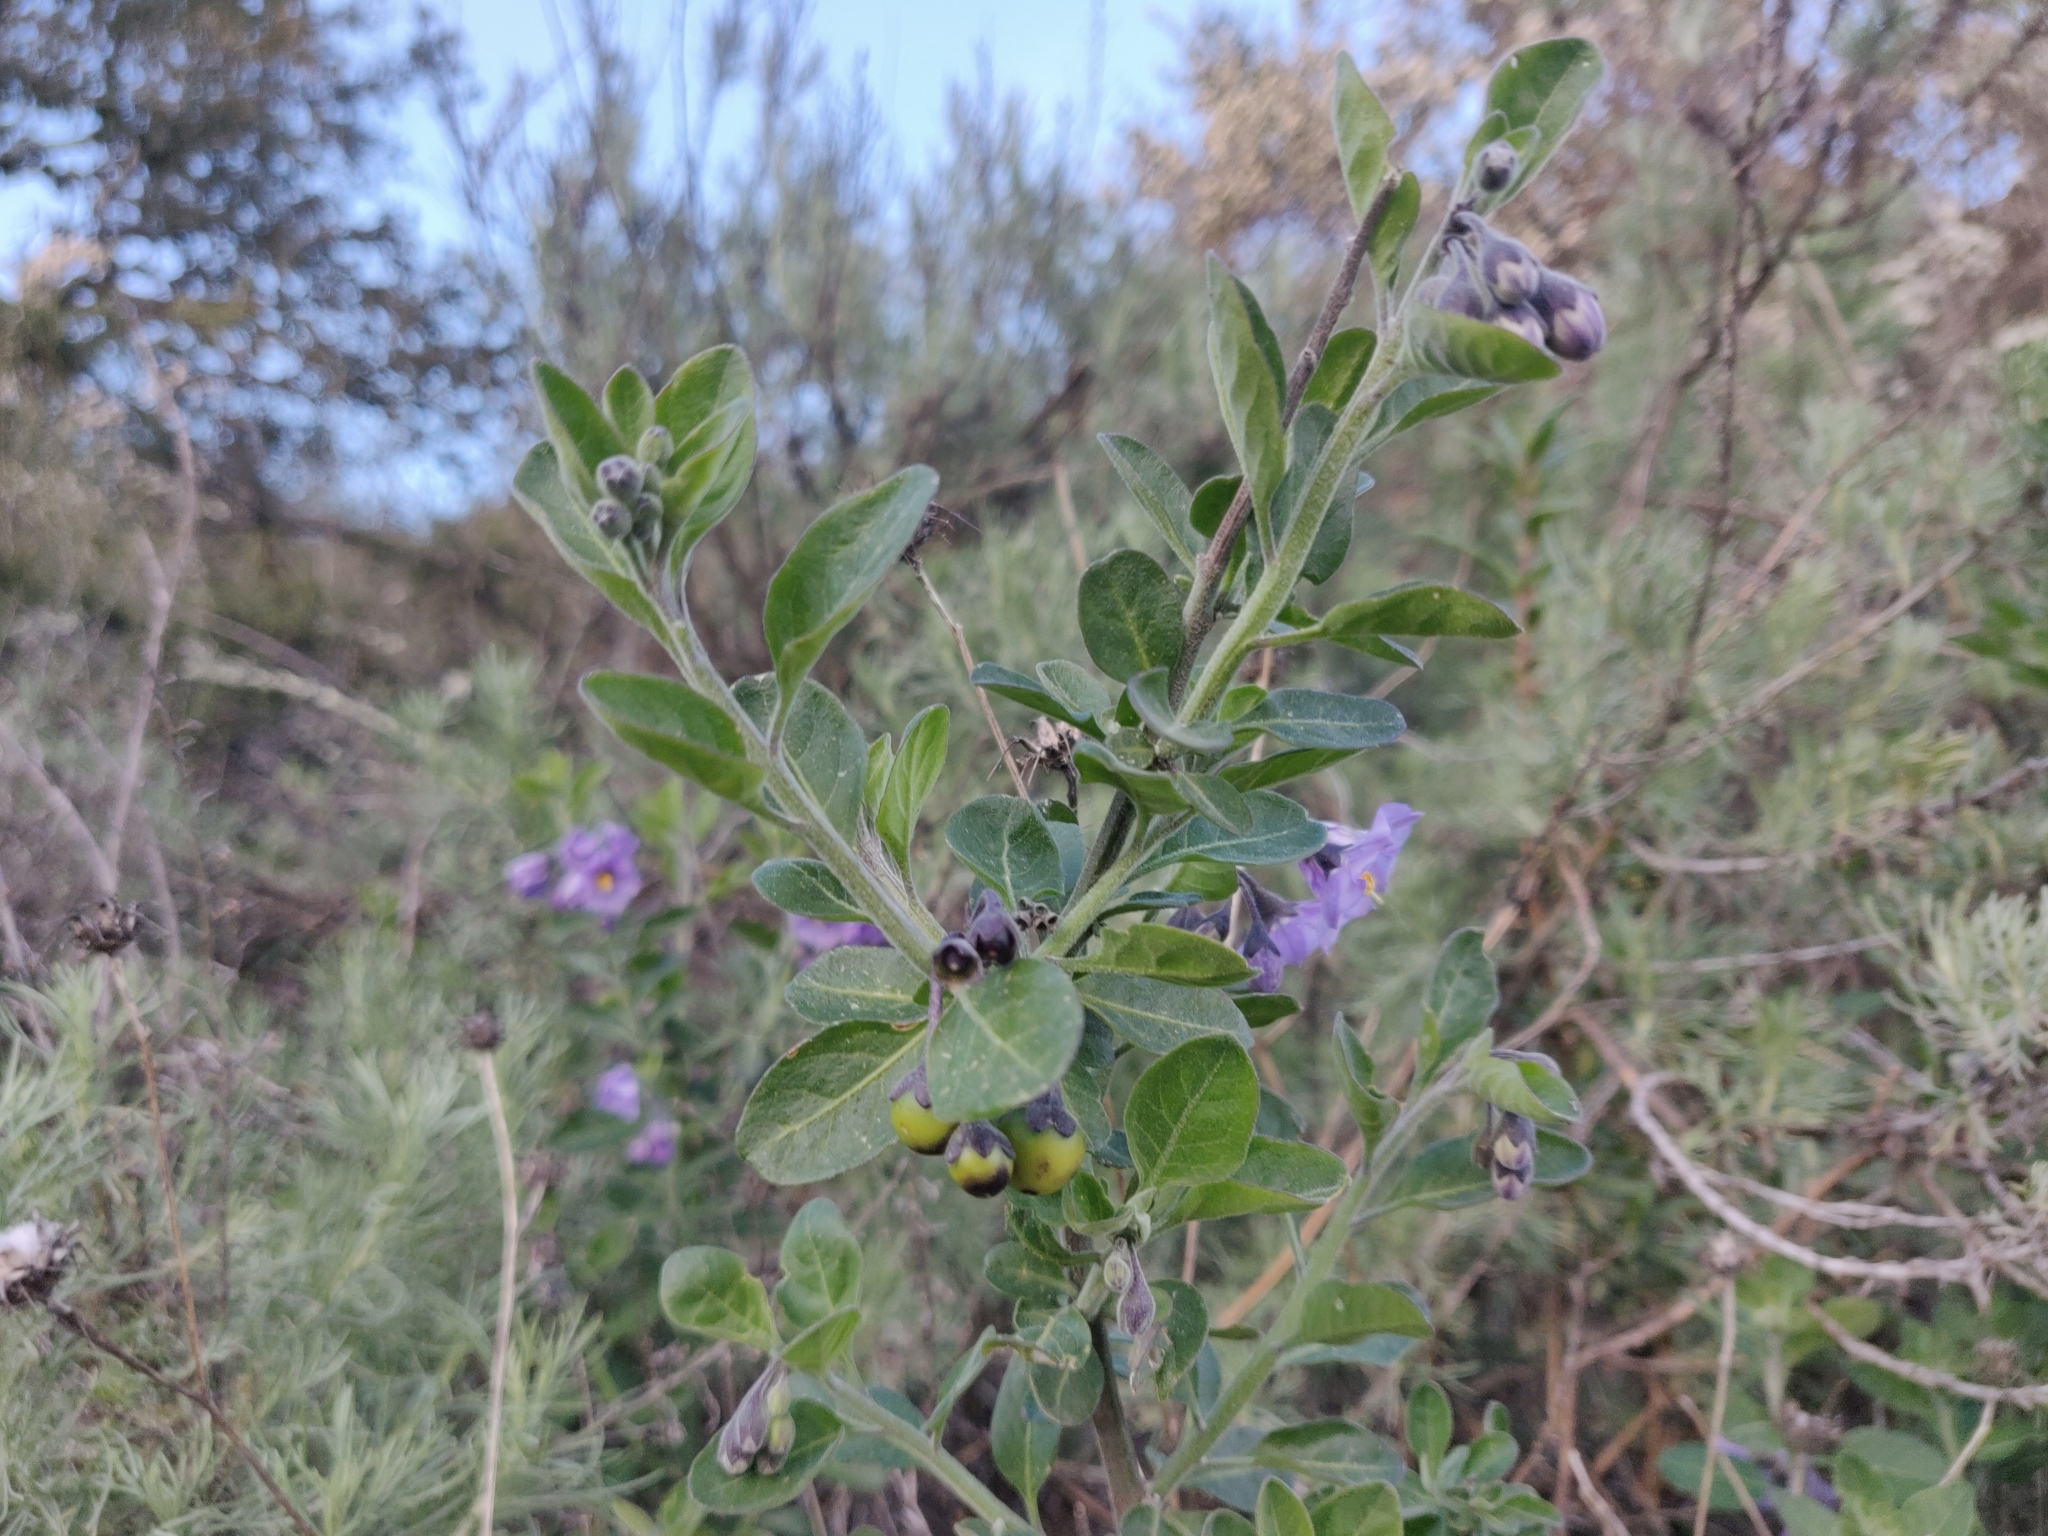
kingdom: Plantae
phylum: Tracheophyta
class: Magnoliopsida
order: Solanales
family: Solanaceae
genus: Solanum
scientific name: Solanum umbelliferum
